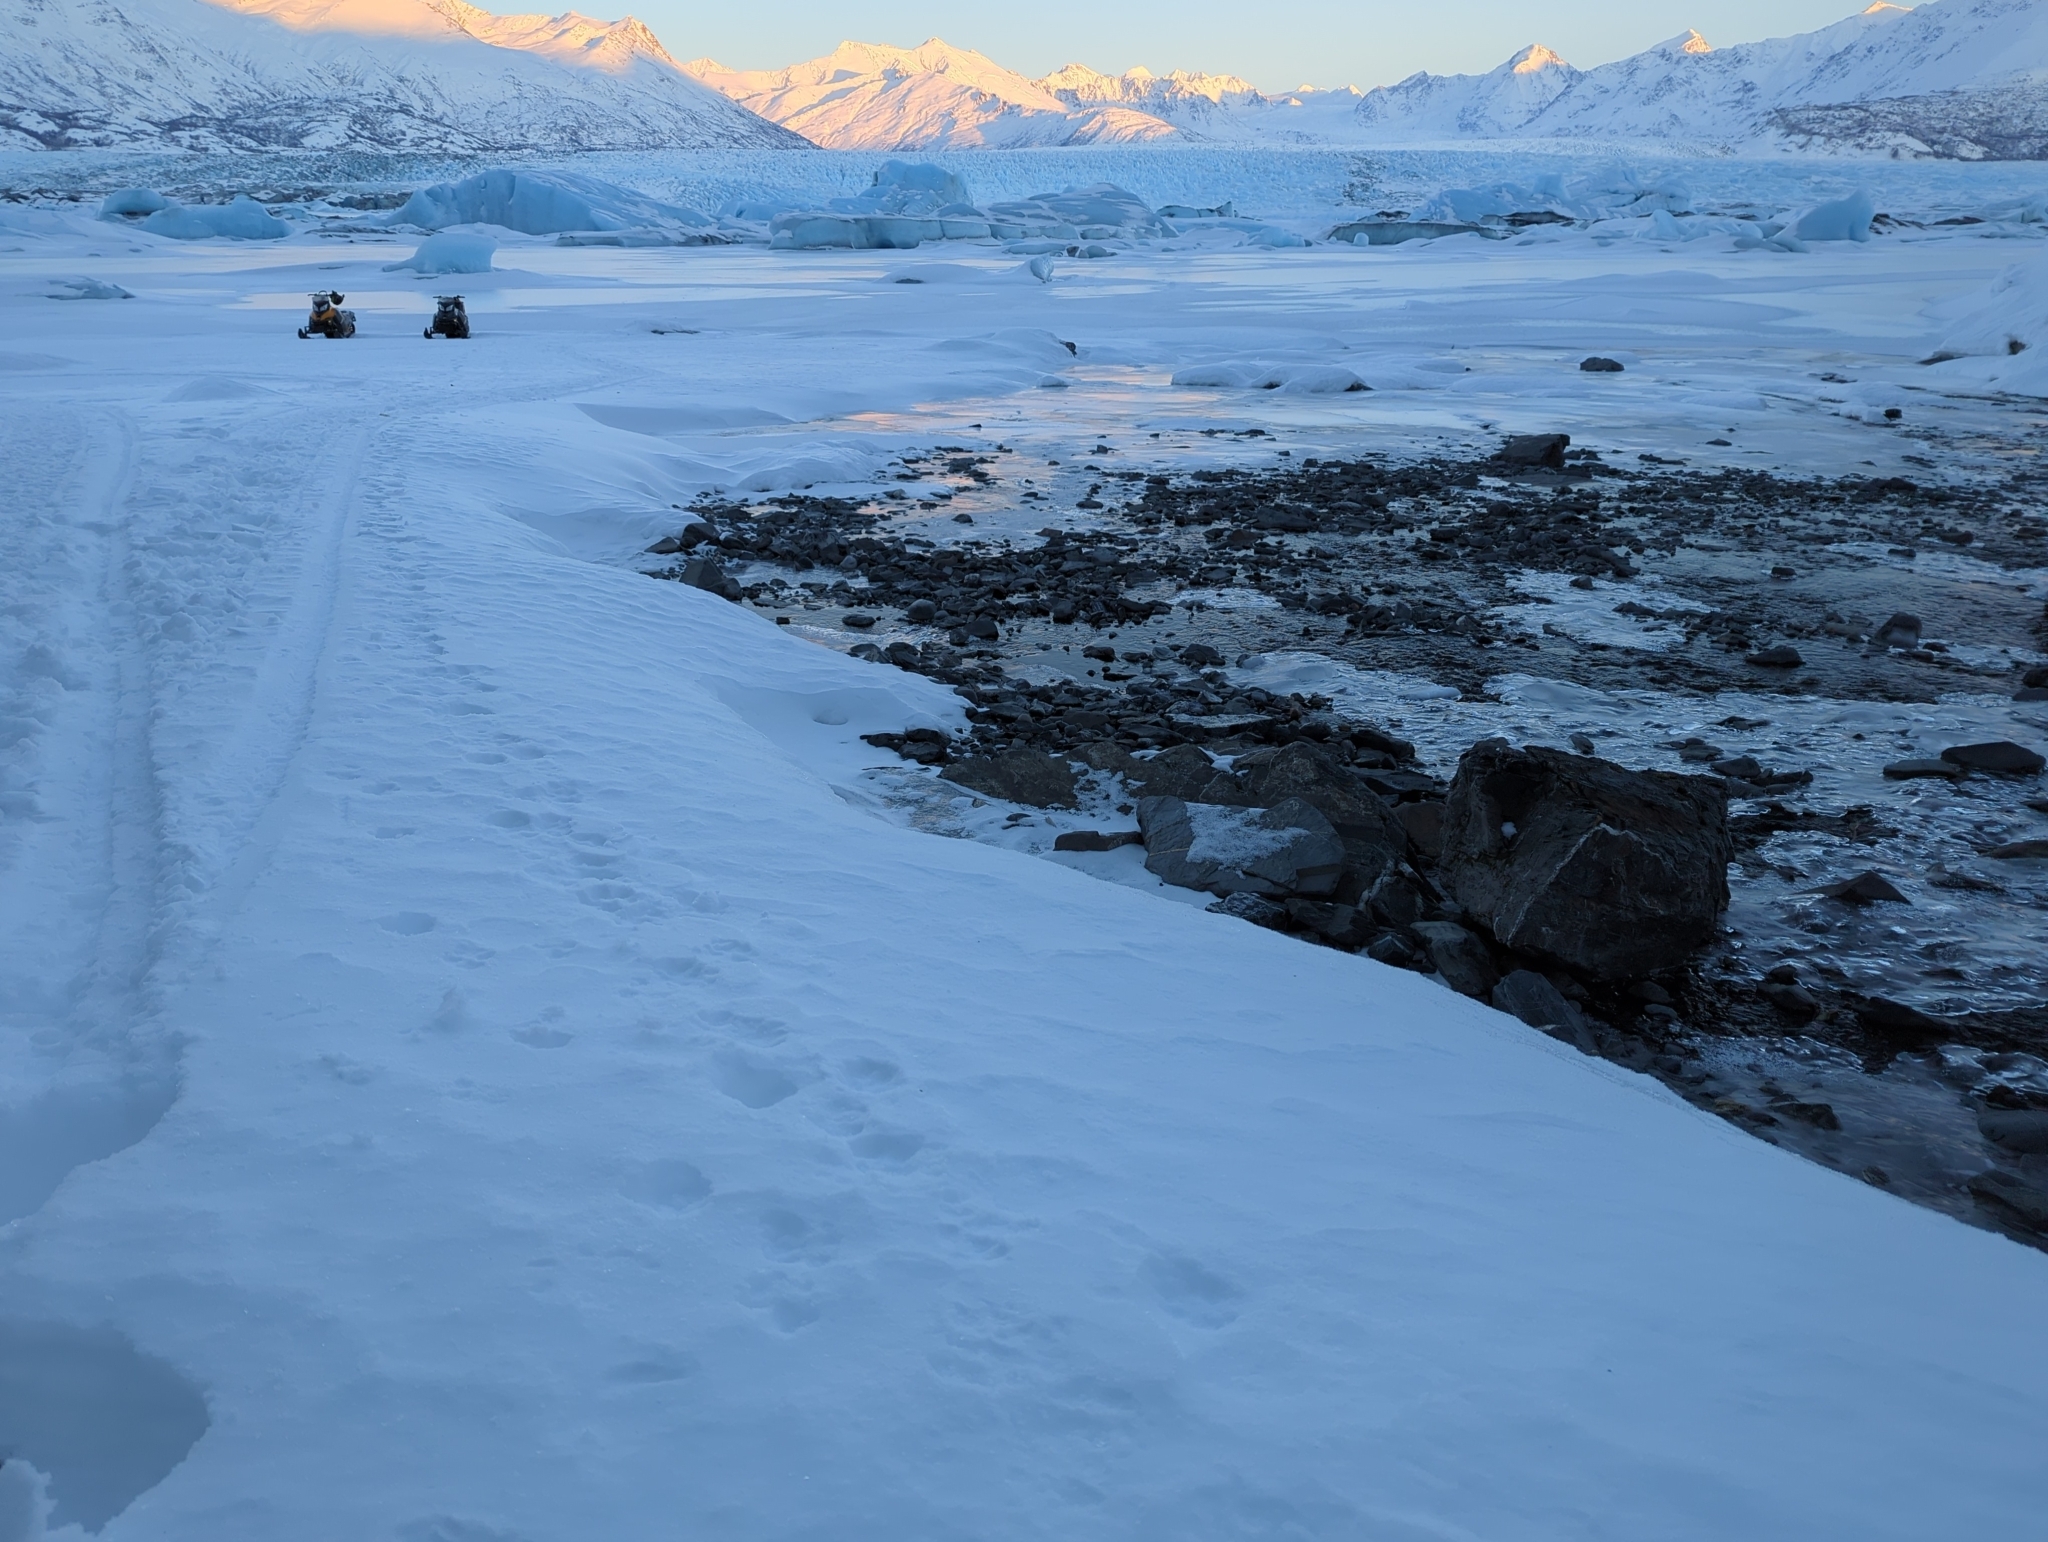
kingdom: Animalia
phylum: Chordata
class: Mammalia
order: Carnivora
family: Canidae
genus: Canis
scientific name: Canis latrans
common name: Coyote
